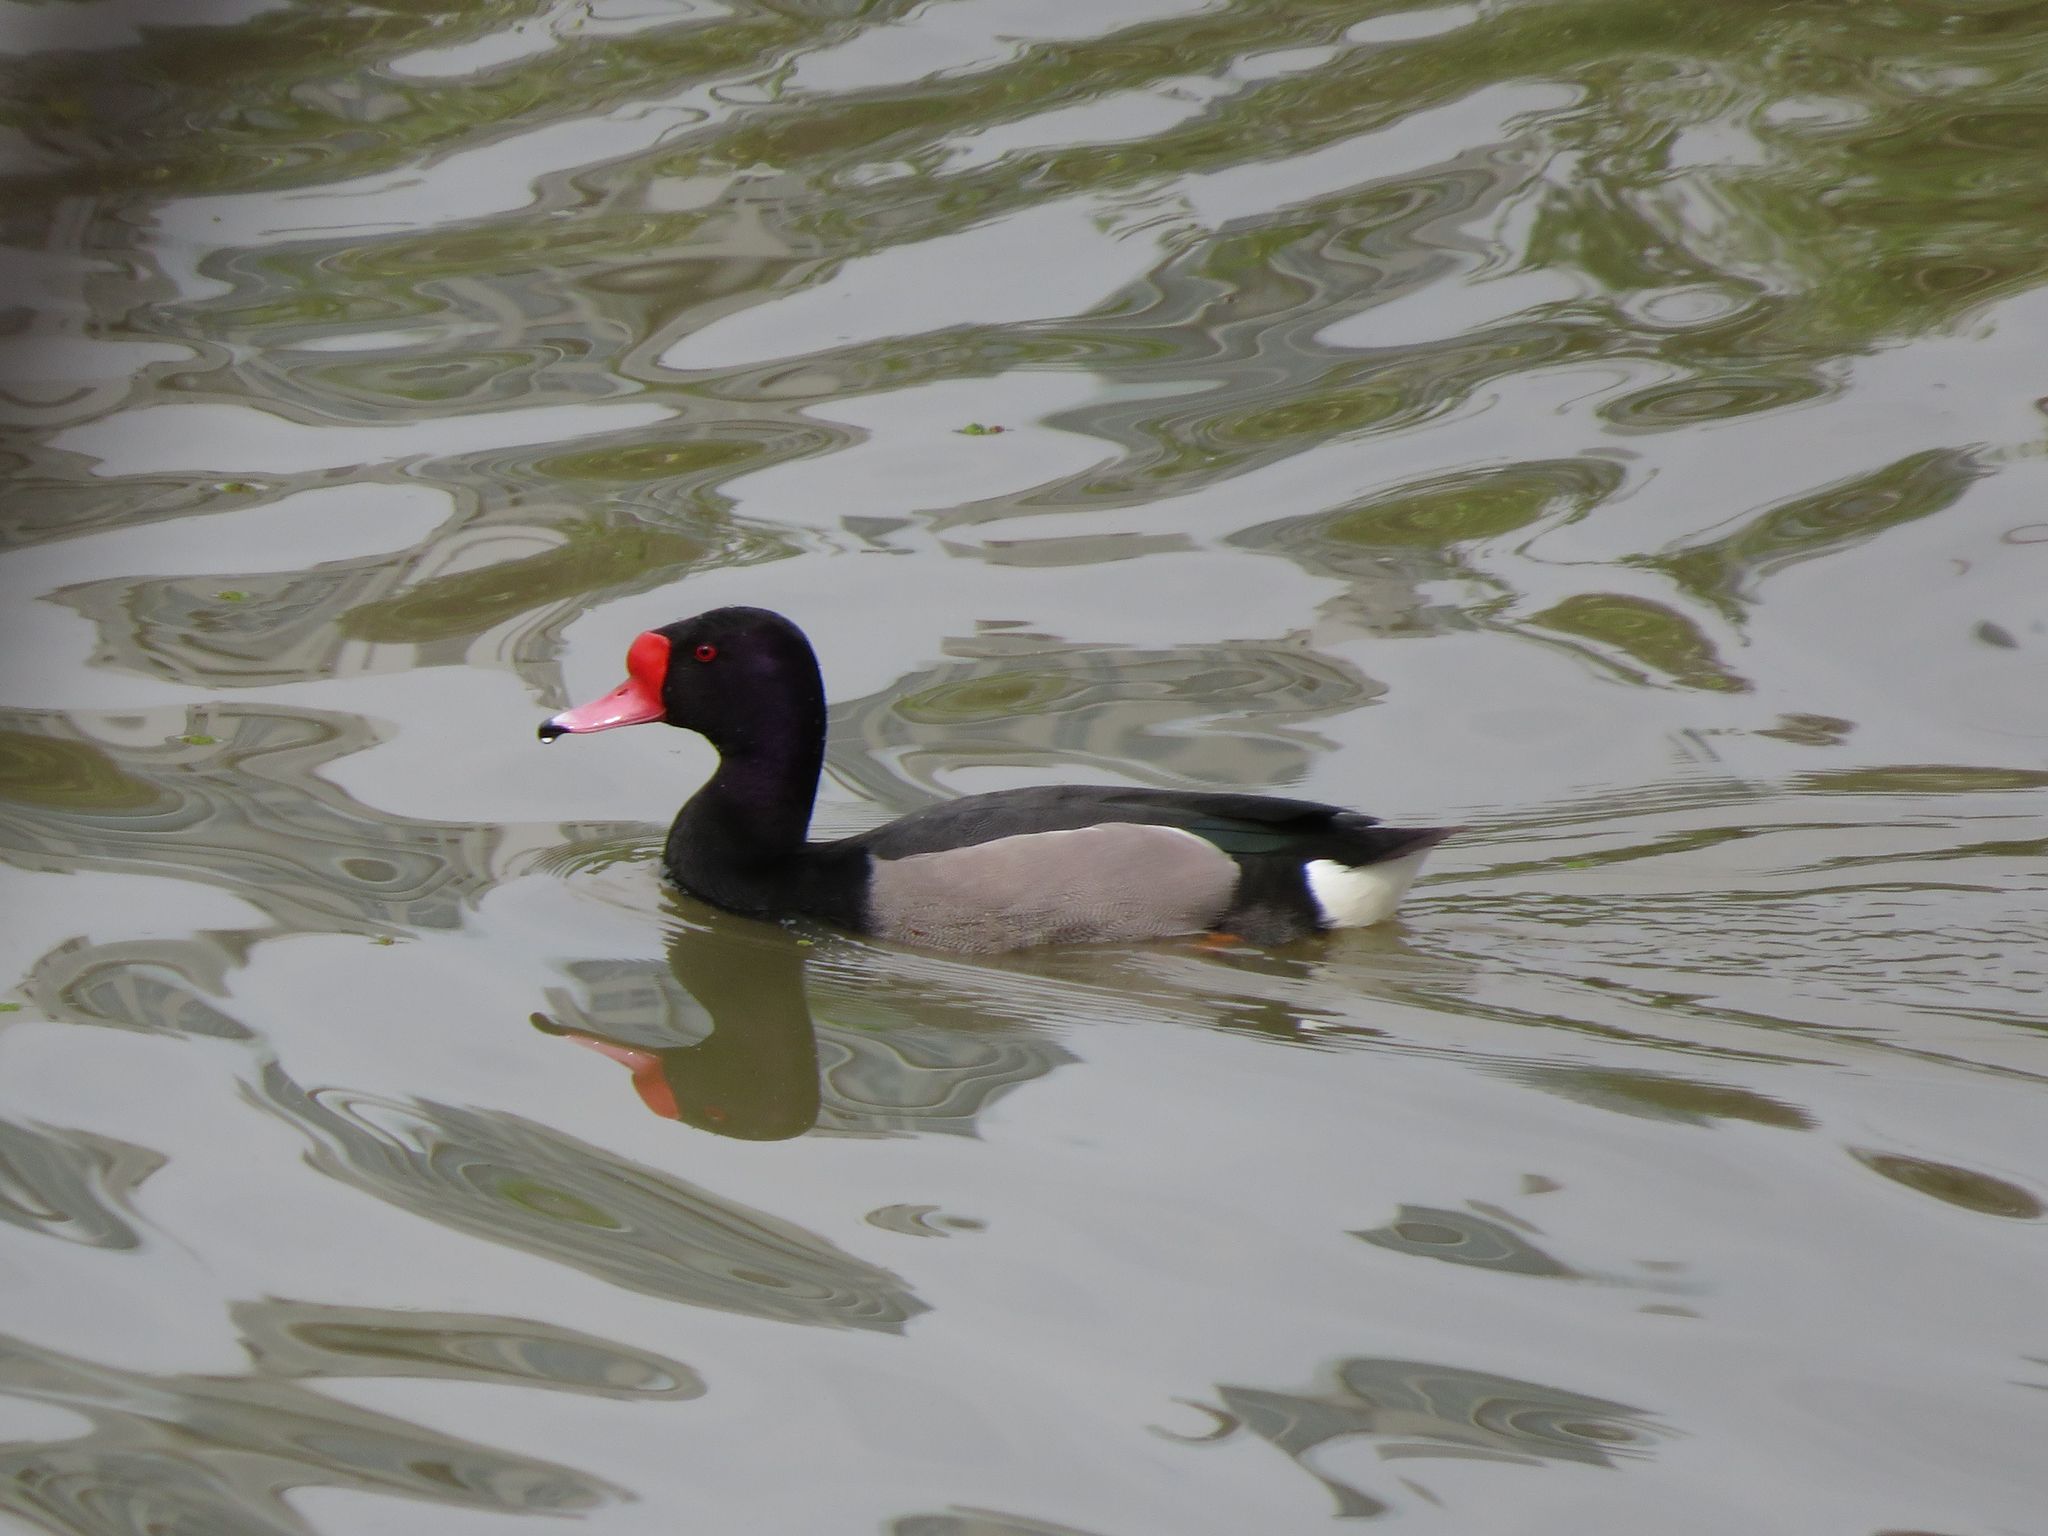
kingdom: Animalia
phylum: Chordata
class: Aves
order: Anseriformes
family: Anatidae
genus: Netta
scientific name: Netta peposaca
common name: Rosy-billed pochard
